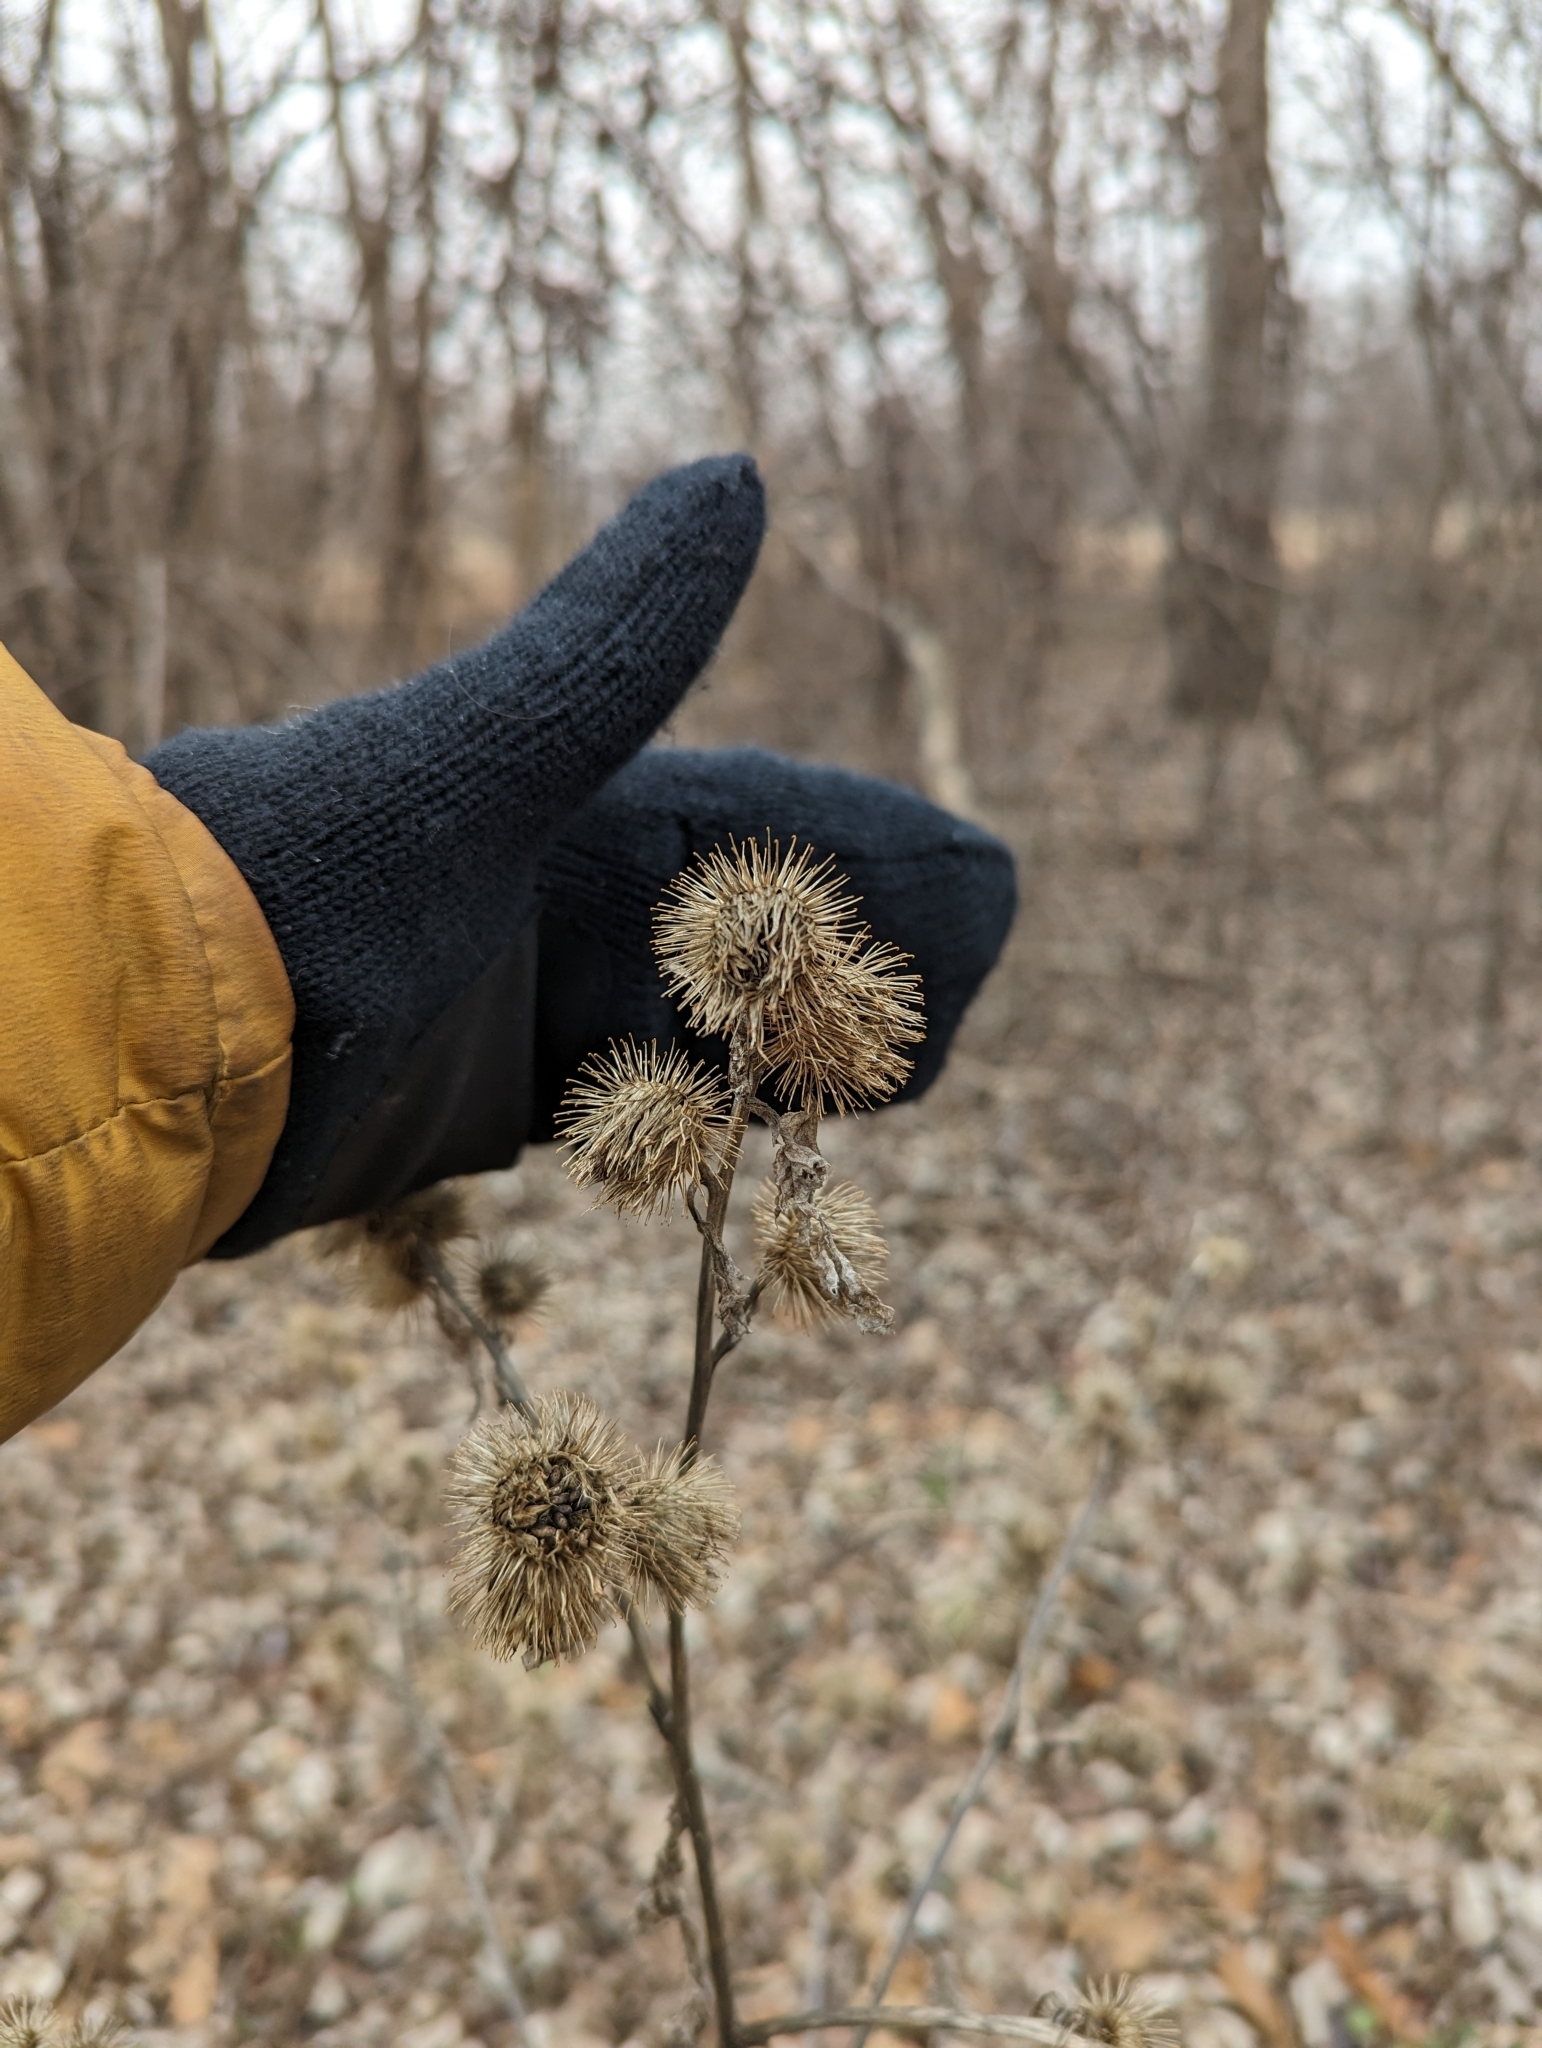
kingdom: Plantae
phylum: Tracheophyta
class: Magnoliopsida
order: Asterales
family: Asteraceae
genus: Arctium
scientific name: Arctium minus
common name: Lesser burdock
